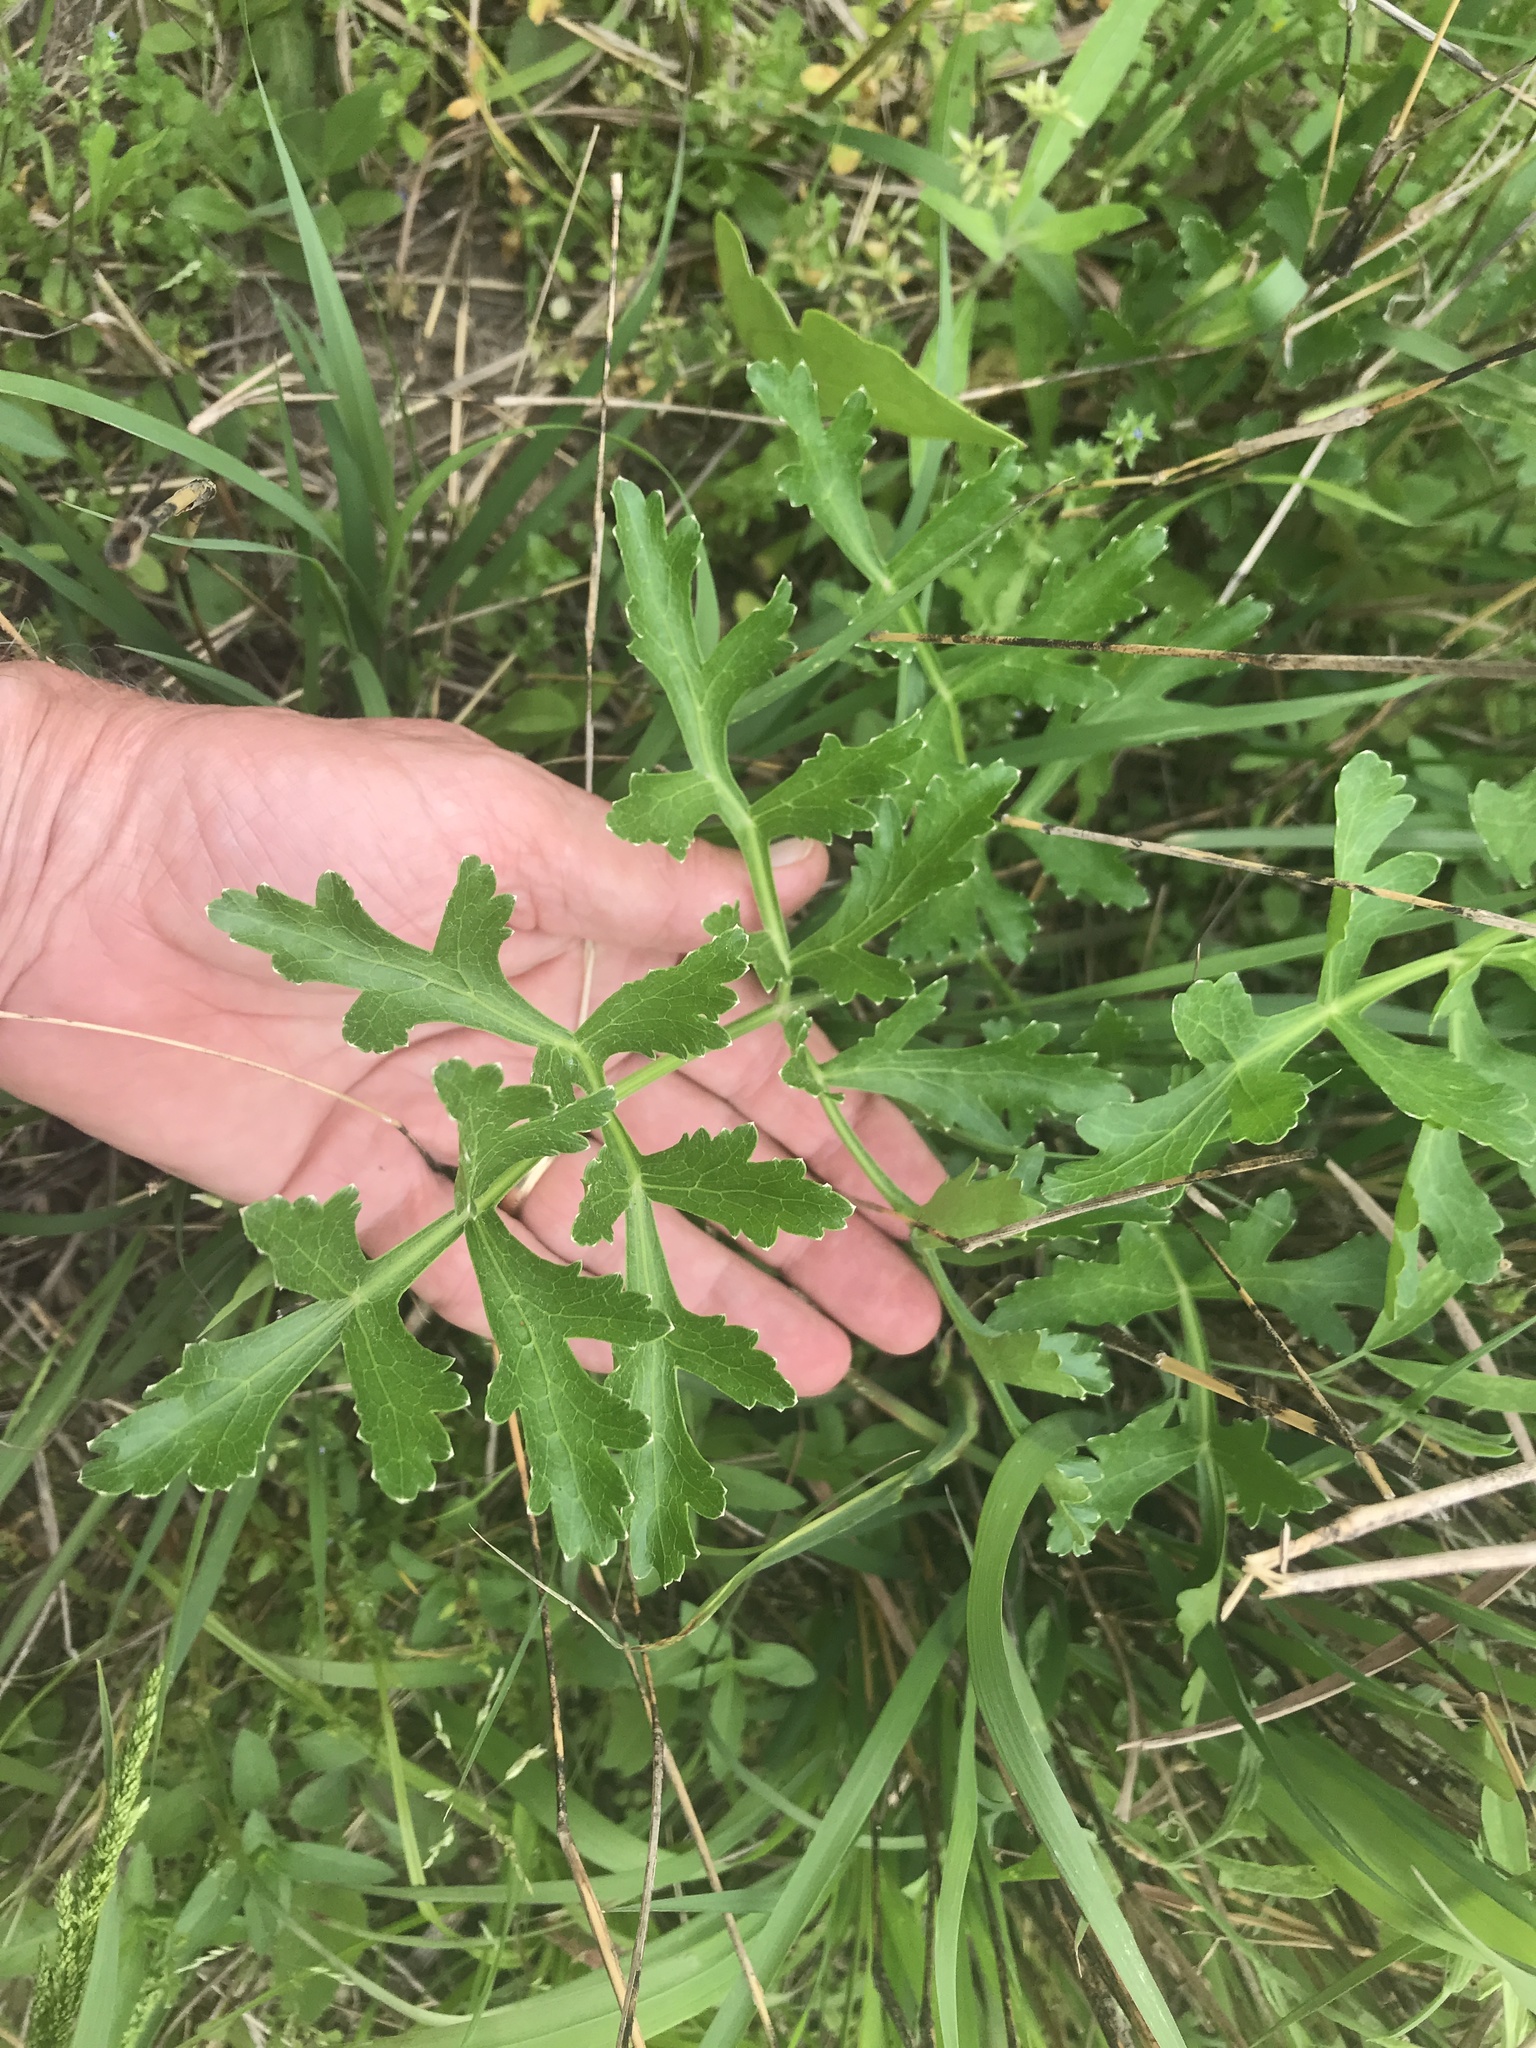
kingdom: Plantae
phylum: Tracheophyta
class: Magnoliopsida
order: Apiales
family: Apiaceae
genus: Polytaenia
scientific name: Polytaenia texana
